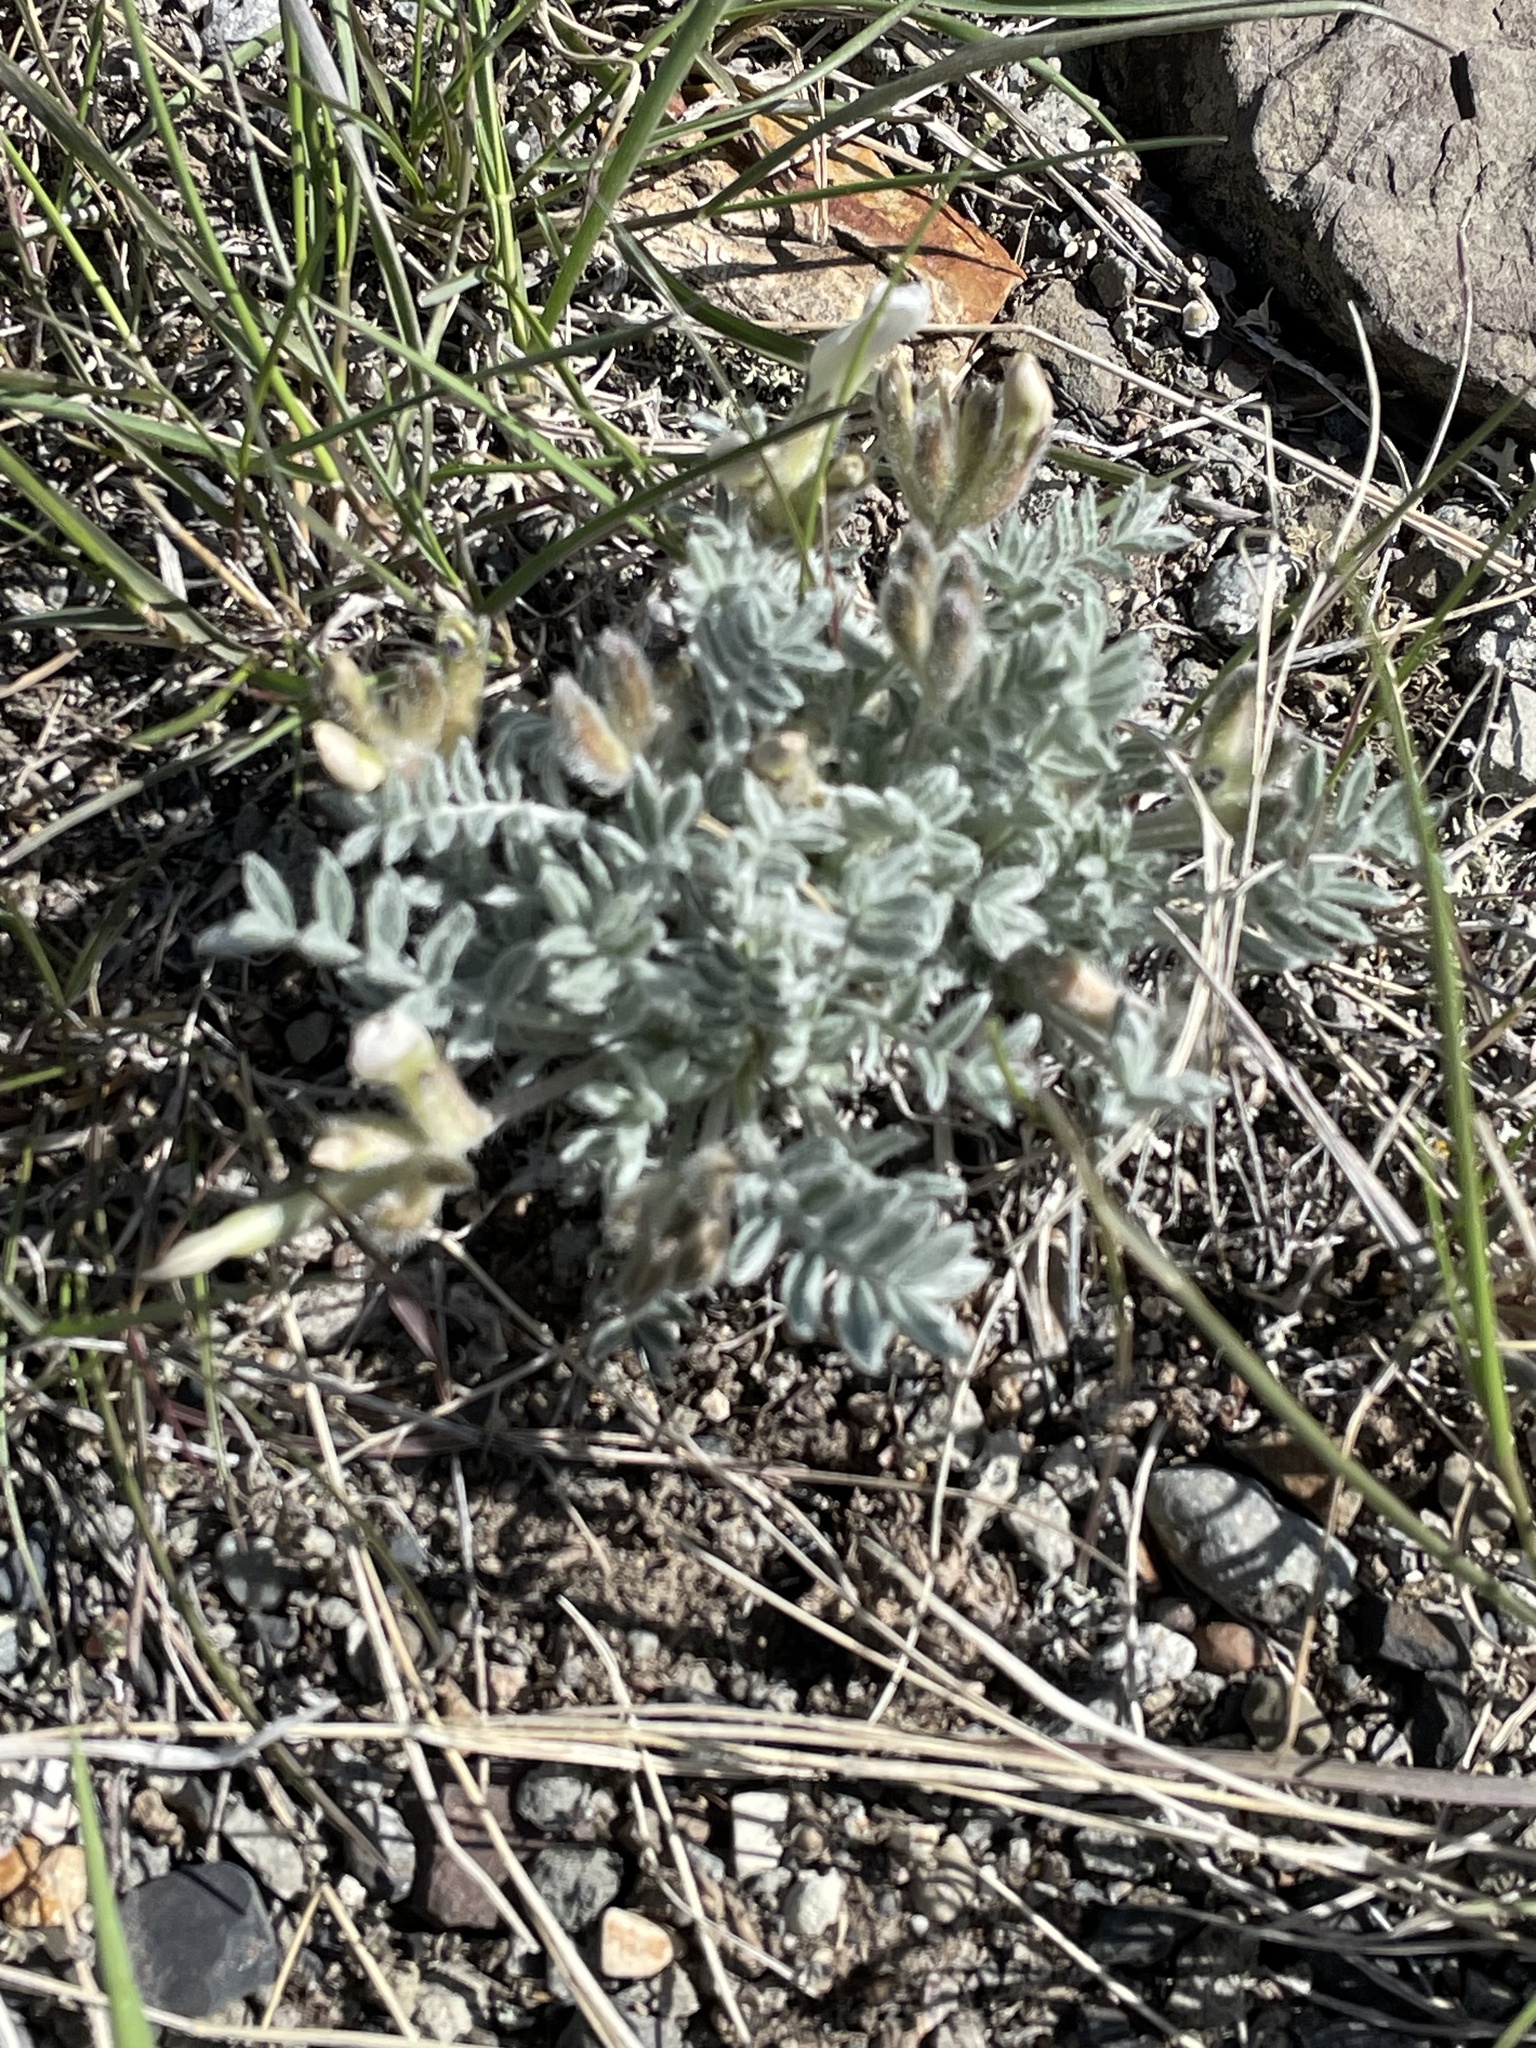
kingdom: Plantae
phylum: Tracheophyta
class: Magnoliopsida
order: Fabales
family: Fabaceae
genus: Astragalus
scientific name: Astragalus purshii
